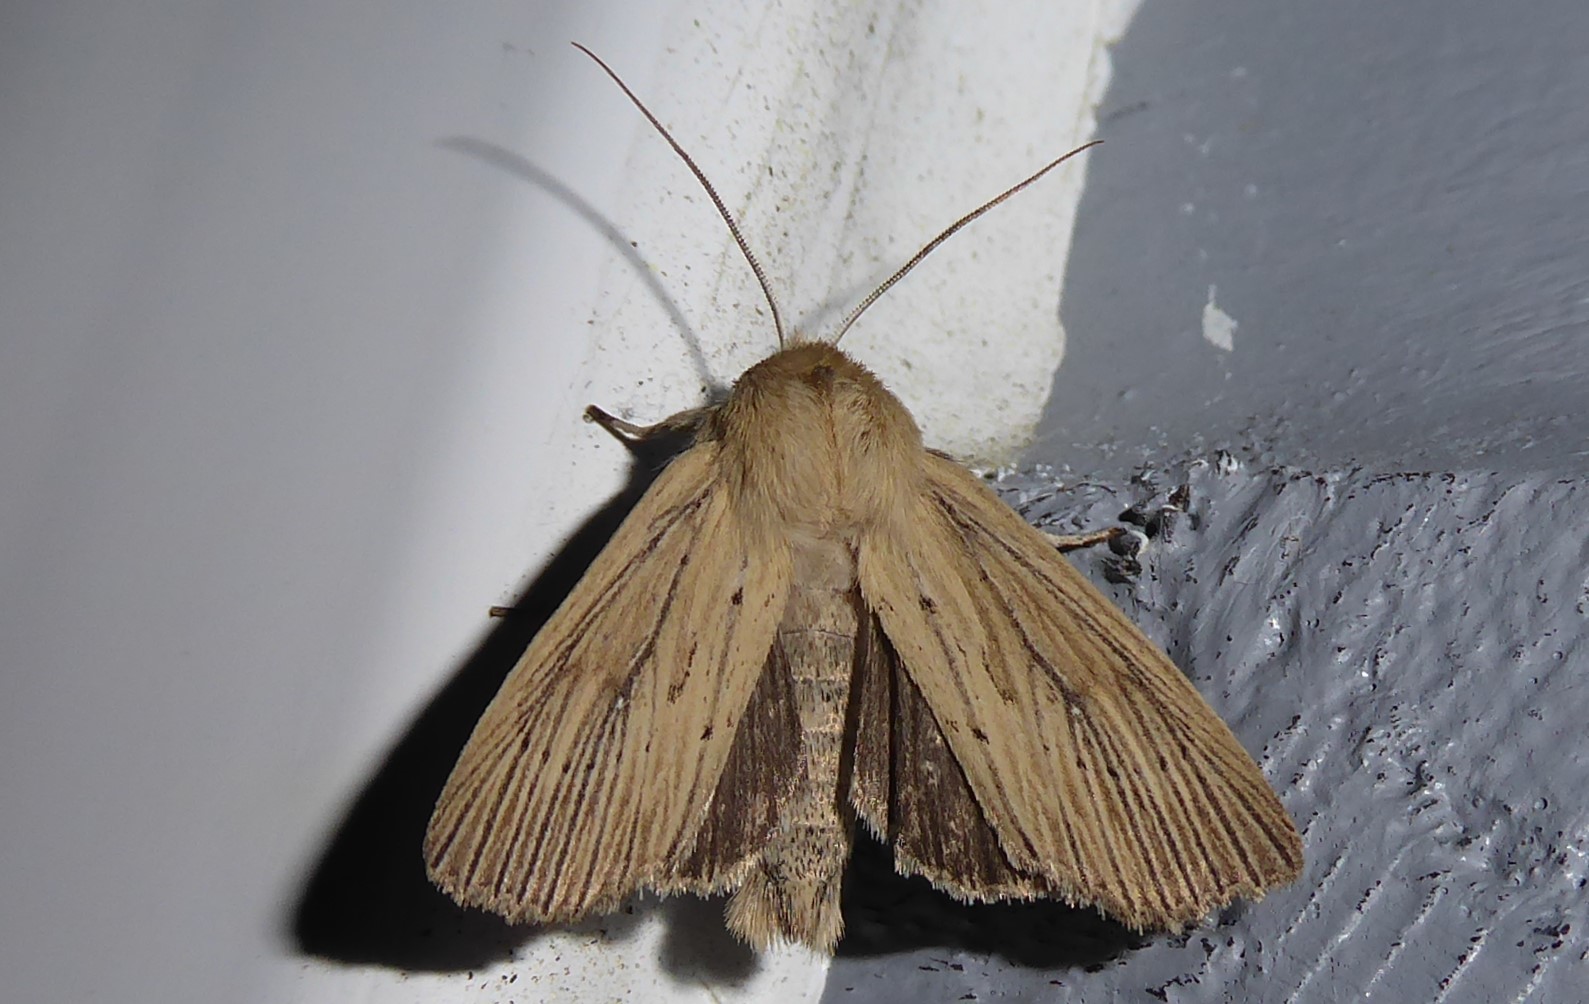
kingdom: Animalia
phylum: Arthropoda
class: Insecta
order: Lepidoptera
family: Noctuidae
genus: Ichneutica
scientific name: Ichneutica arotis
